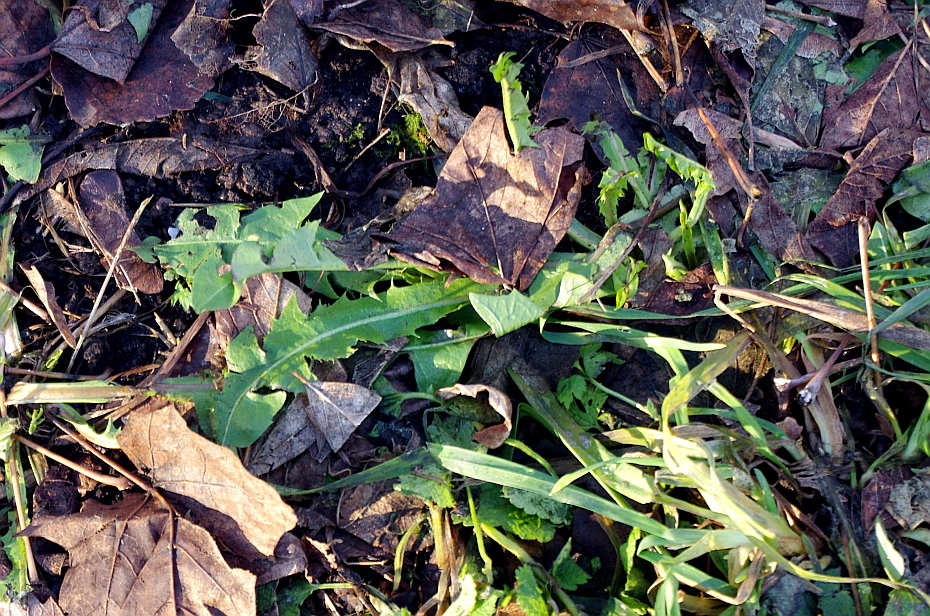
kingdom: Plantae
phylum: Tracheophyta
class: Magnoliopsida
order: Asterales
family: Asteraceae
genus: Taraxacum
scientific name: Taraxacum officinale
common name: Common dandelion
